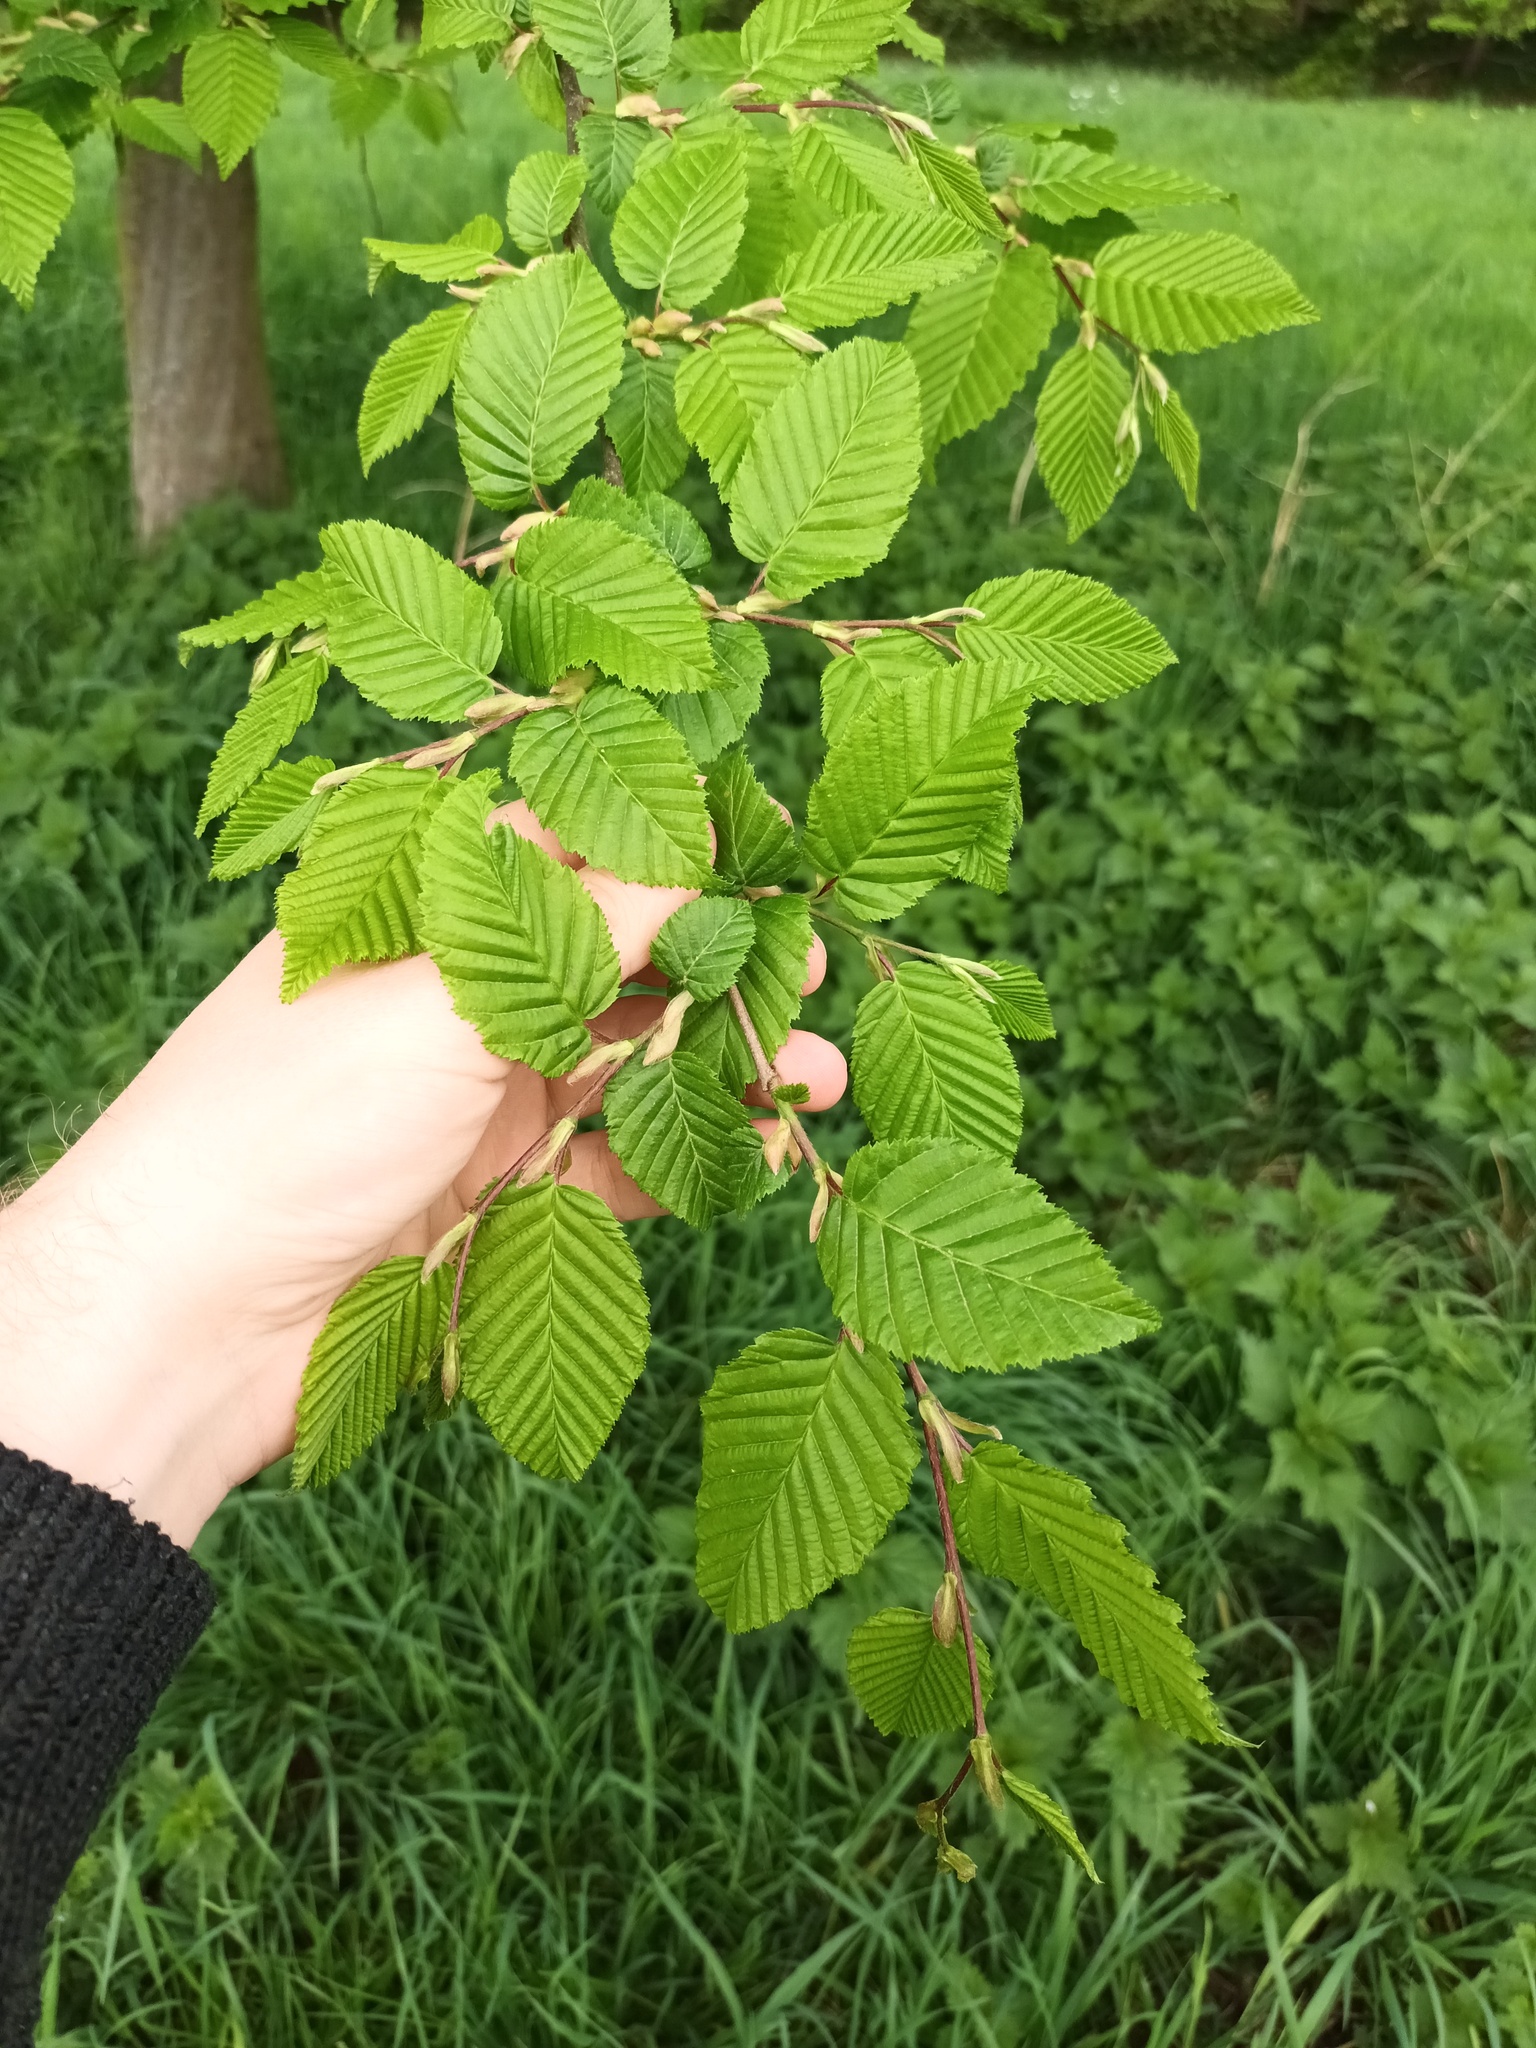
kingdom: Plantae
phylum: Tracheophyta
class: Magnoliopsida
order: Fagales
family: Betulaceae
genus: Carpinus
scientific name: Carpinus betulus
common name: Hornbeam
